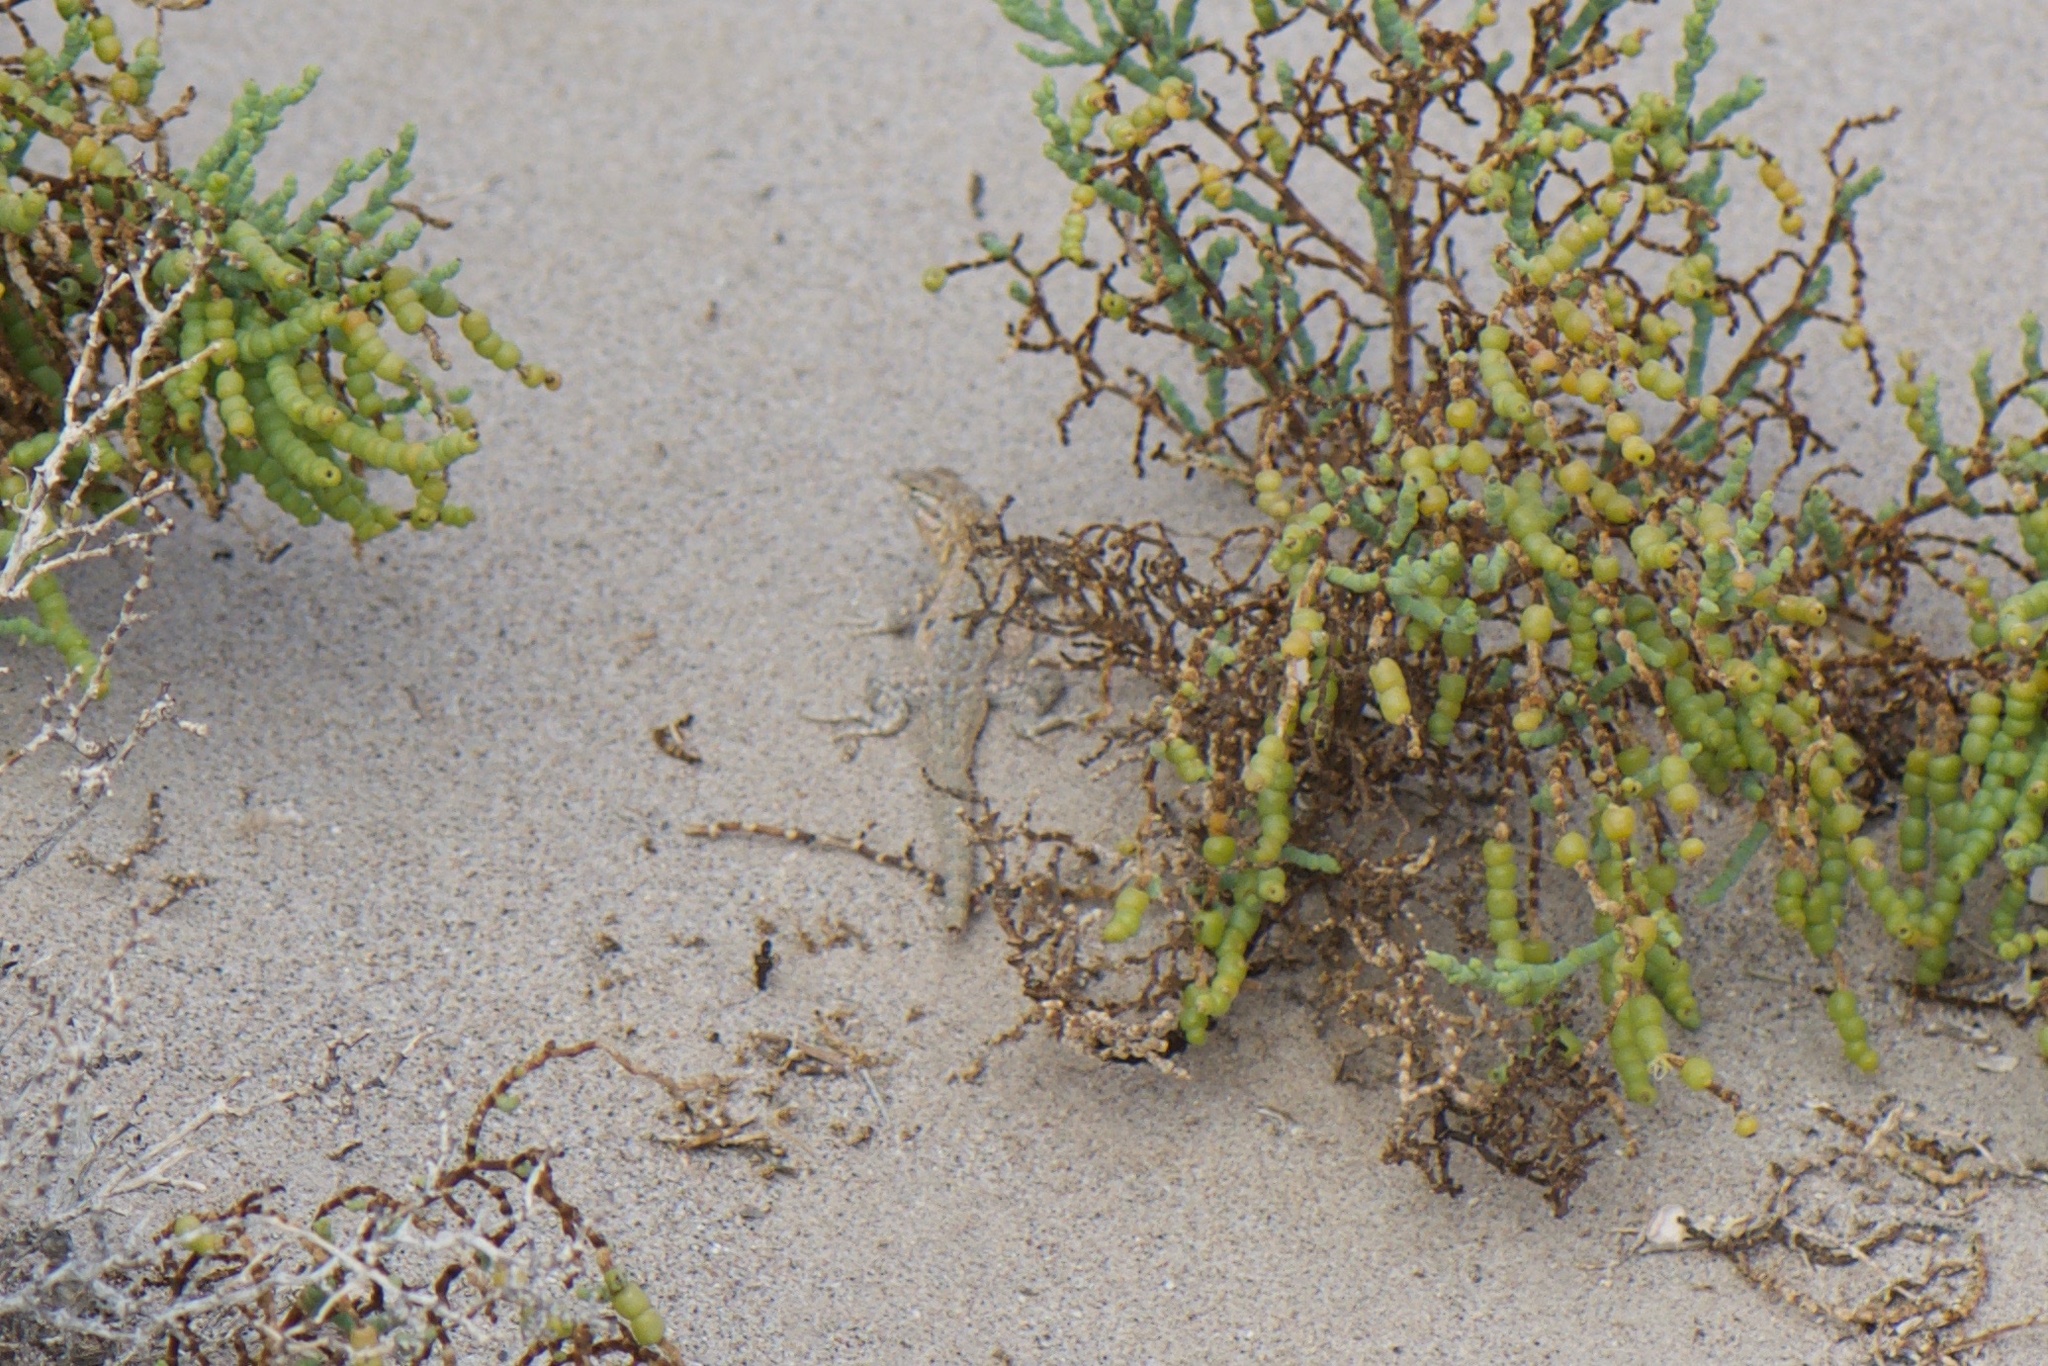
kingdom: Plantae
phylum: Tracheophyta
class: Magnoliopsida
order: Caryophyllales
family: Amaranthaceae
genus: Allenrolfea
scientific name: Allenrolfea occidentalis
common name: Iodine-bush
